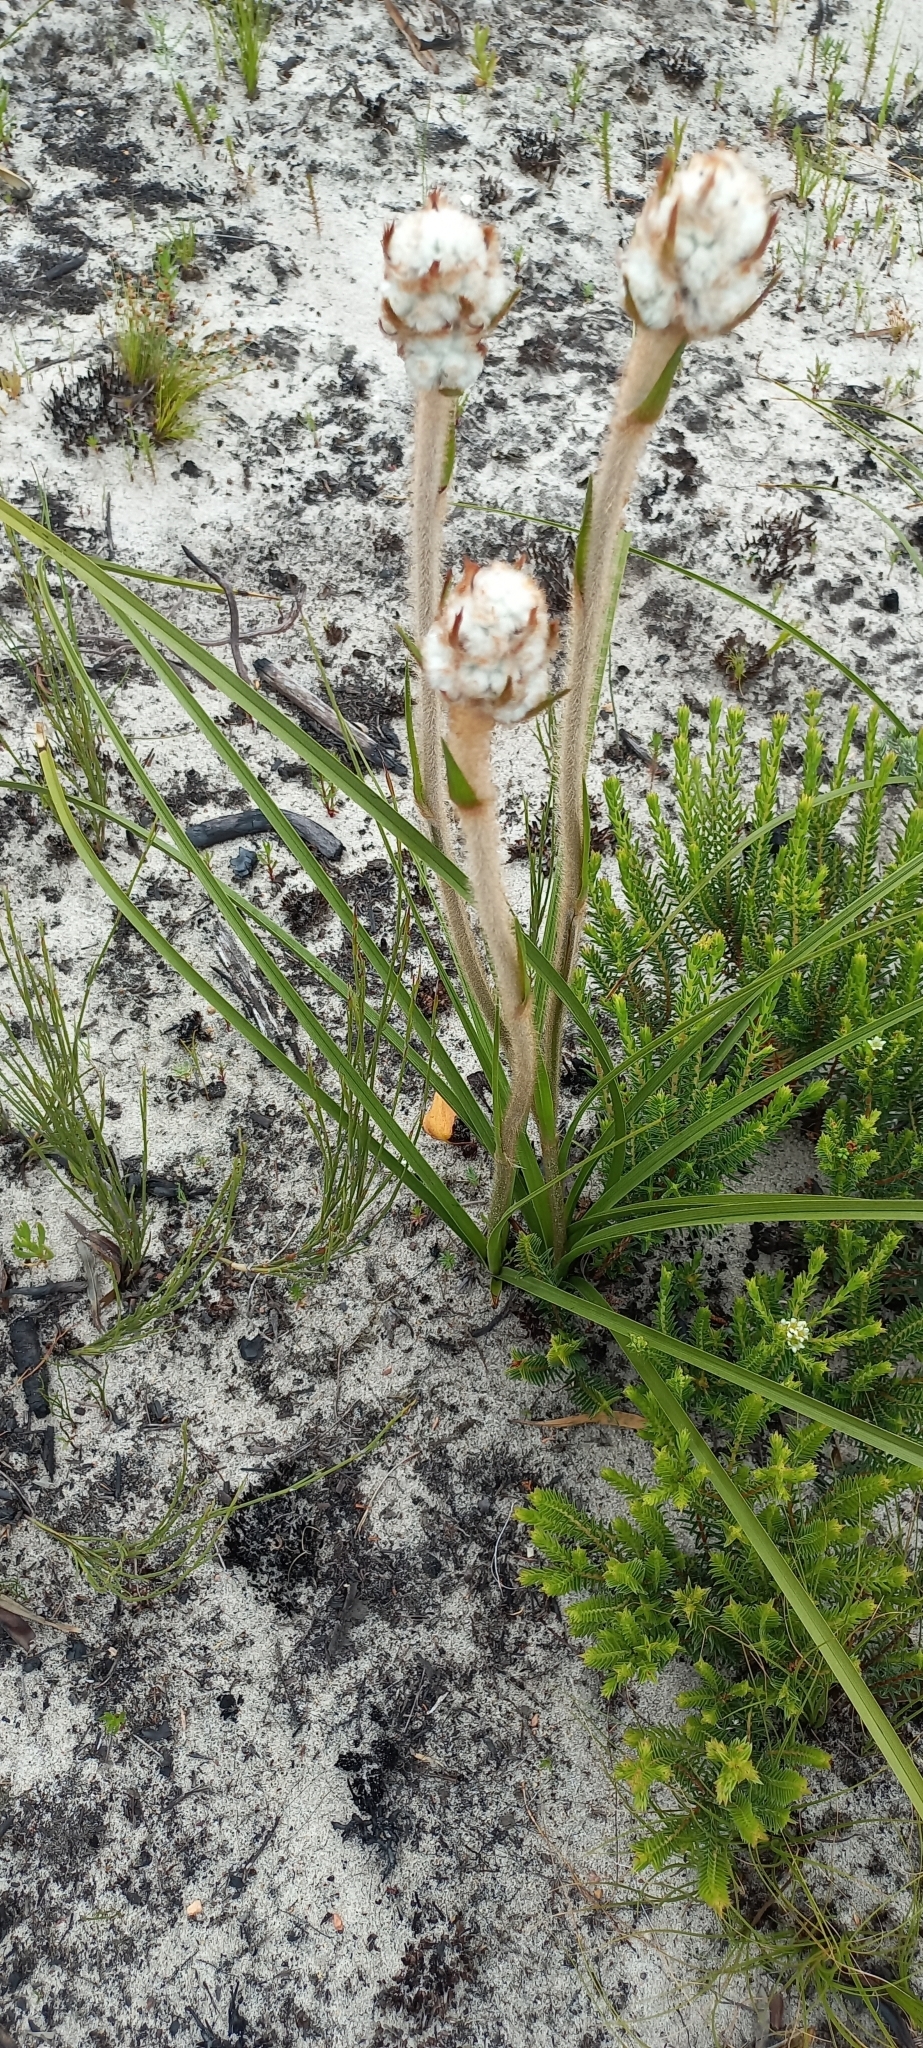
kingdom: Plantae
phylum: Tracheophyta
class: Liliopsida
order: Asparagales
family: Lanariaceae
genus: Lanaria
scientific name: Lanaria lanata
